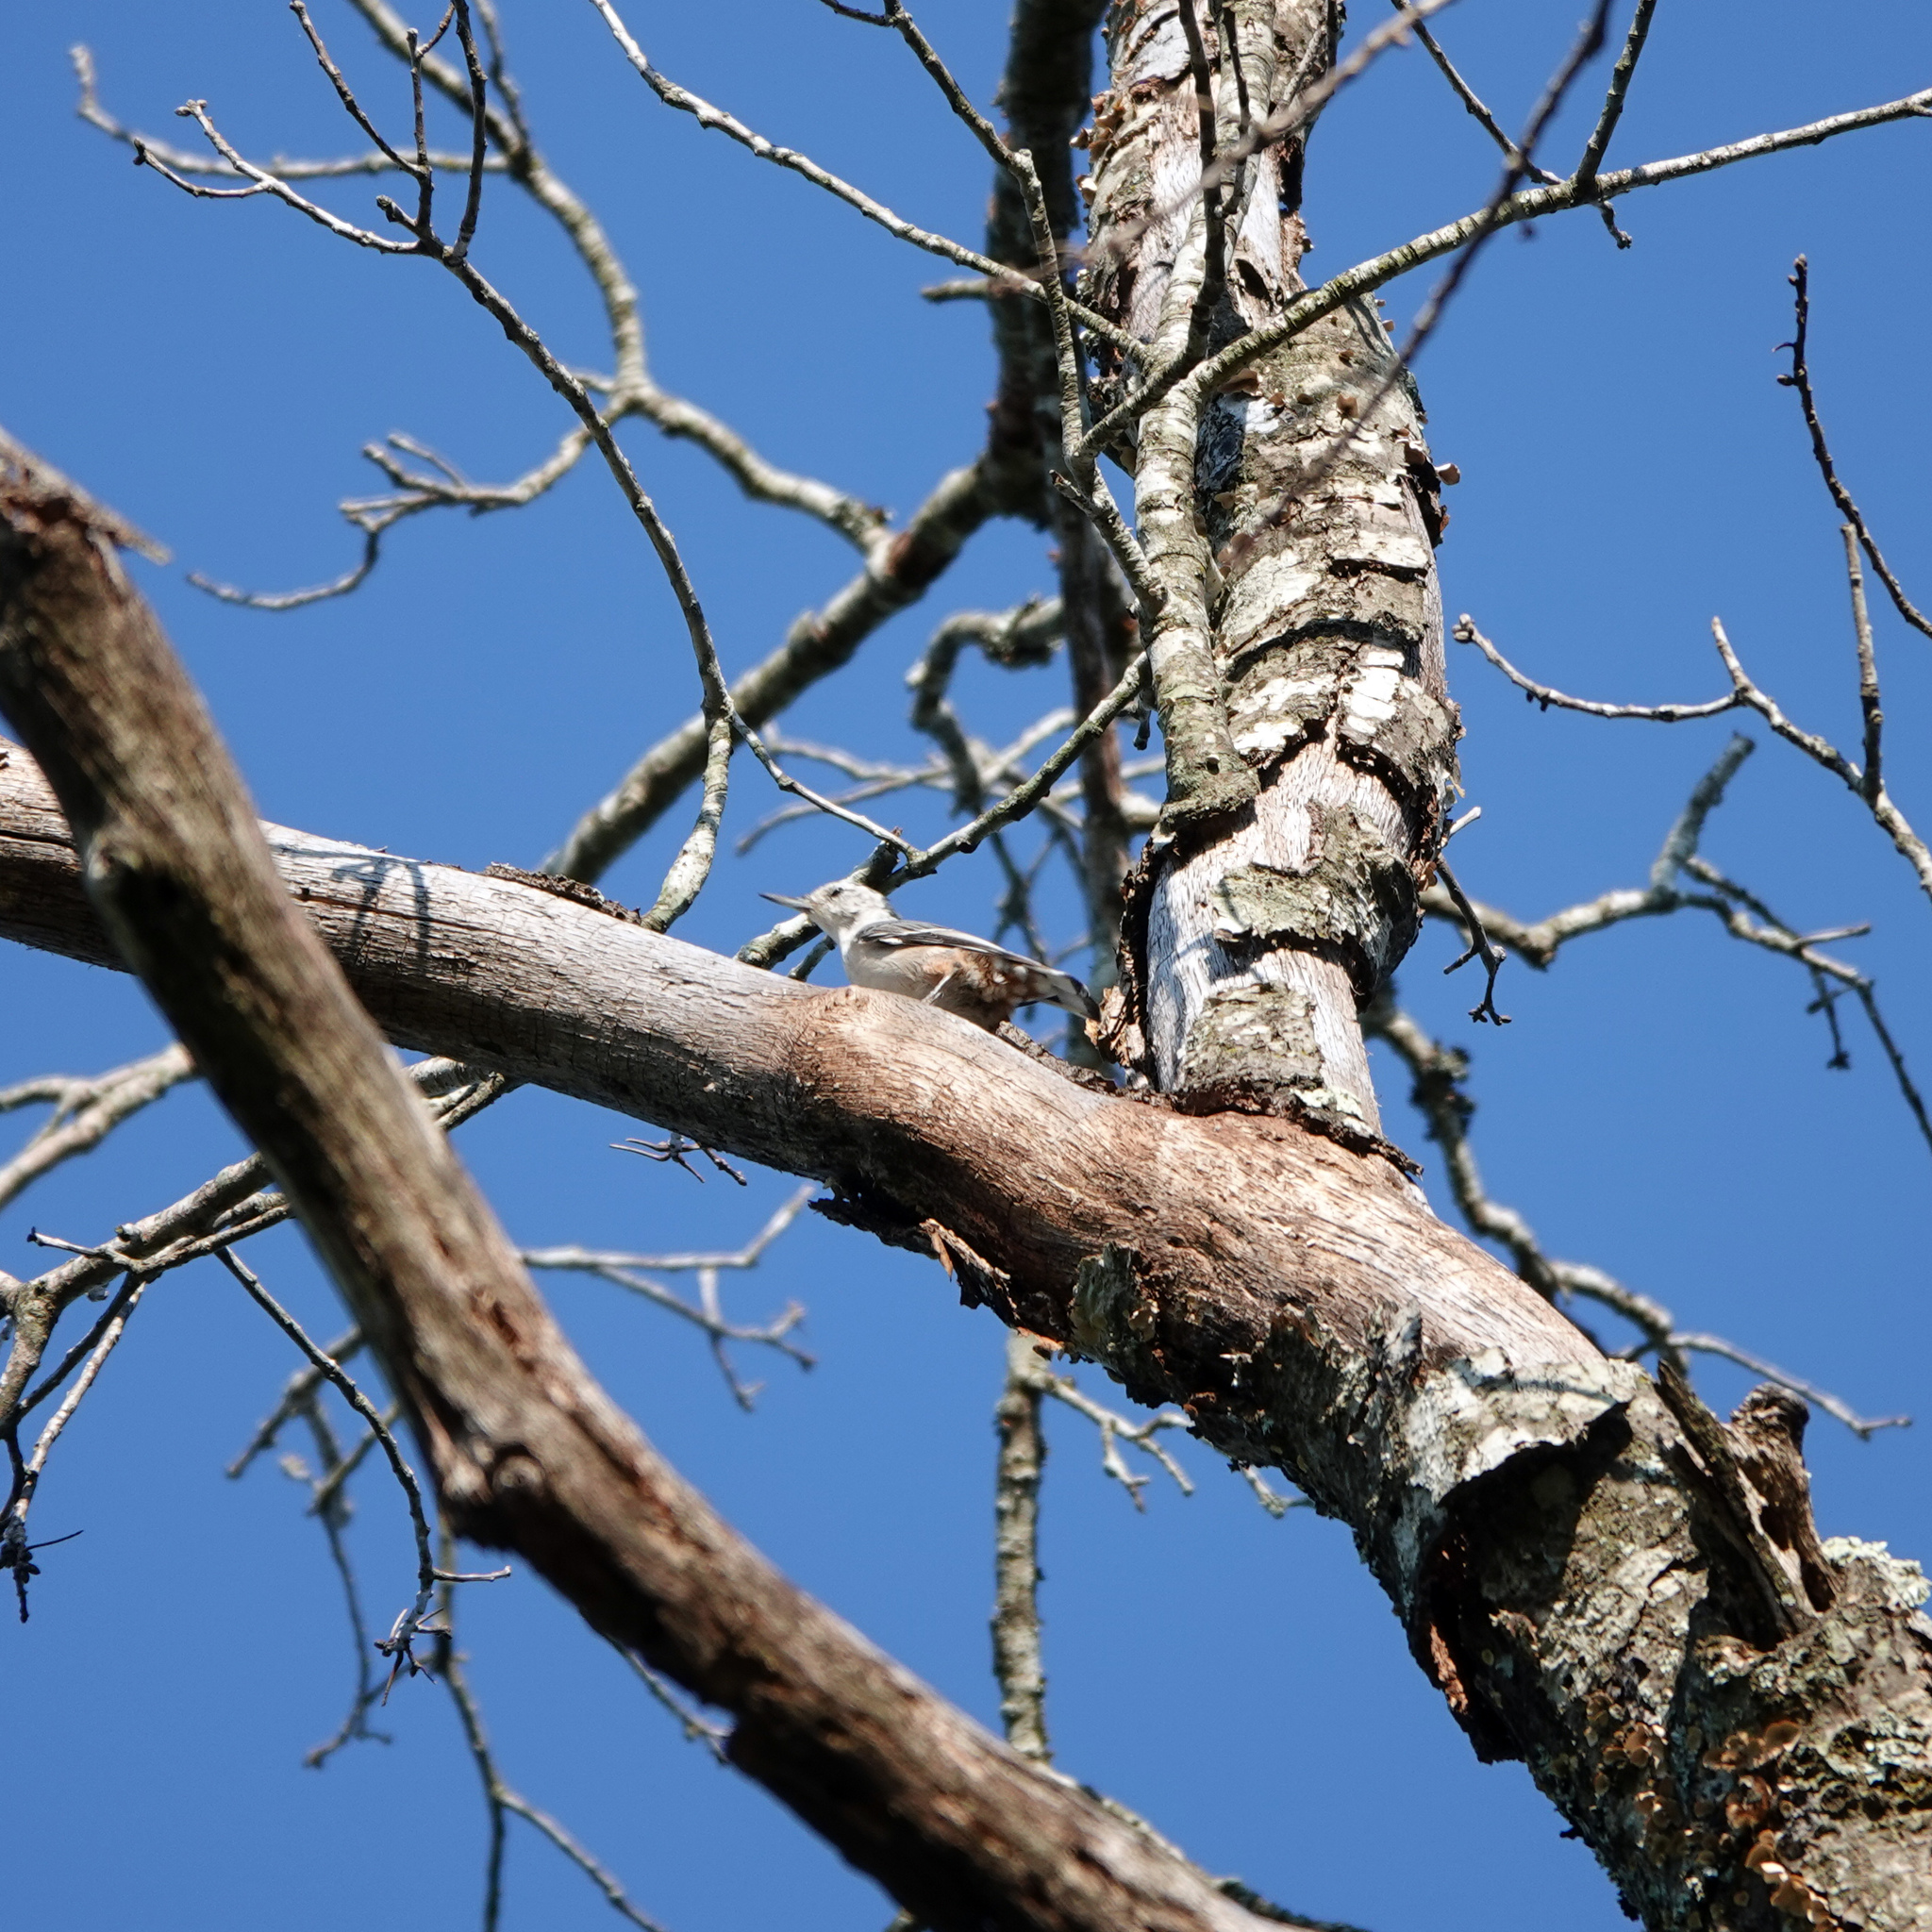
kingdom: Animalia
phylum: Chordata
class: Aves
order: Passeriformes
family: Sittidae
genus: Sitta
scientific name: Sitta carolinensis
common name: White-breasted nuthatch
